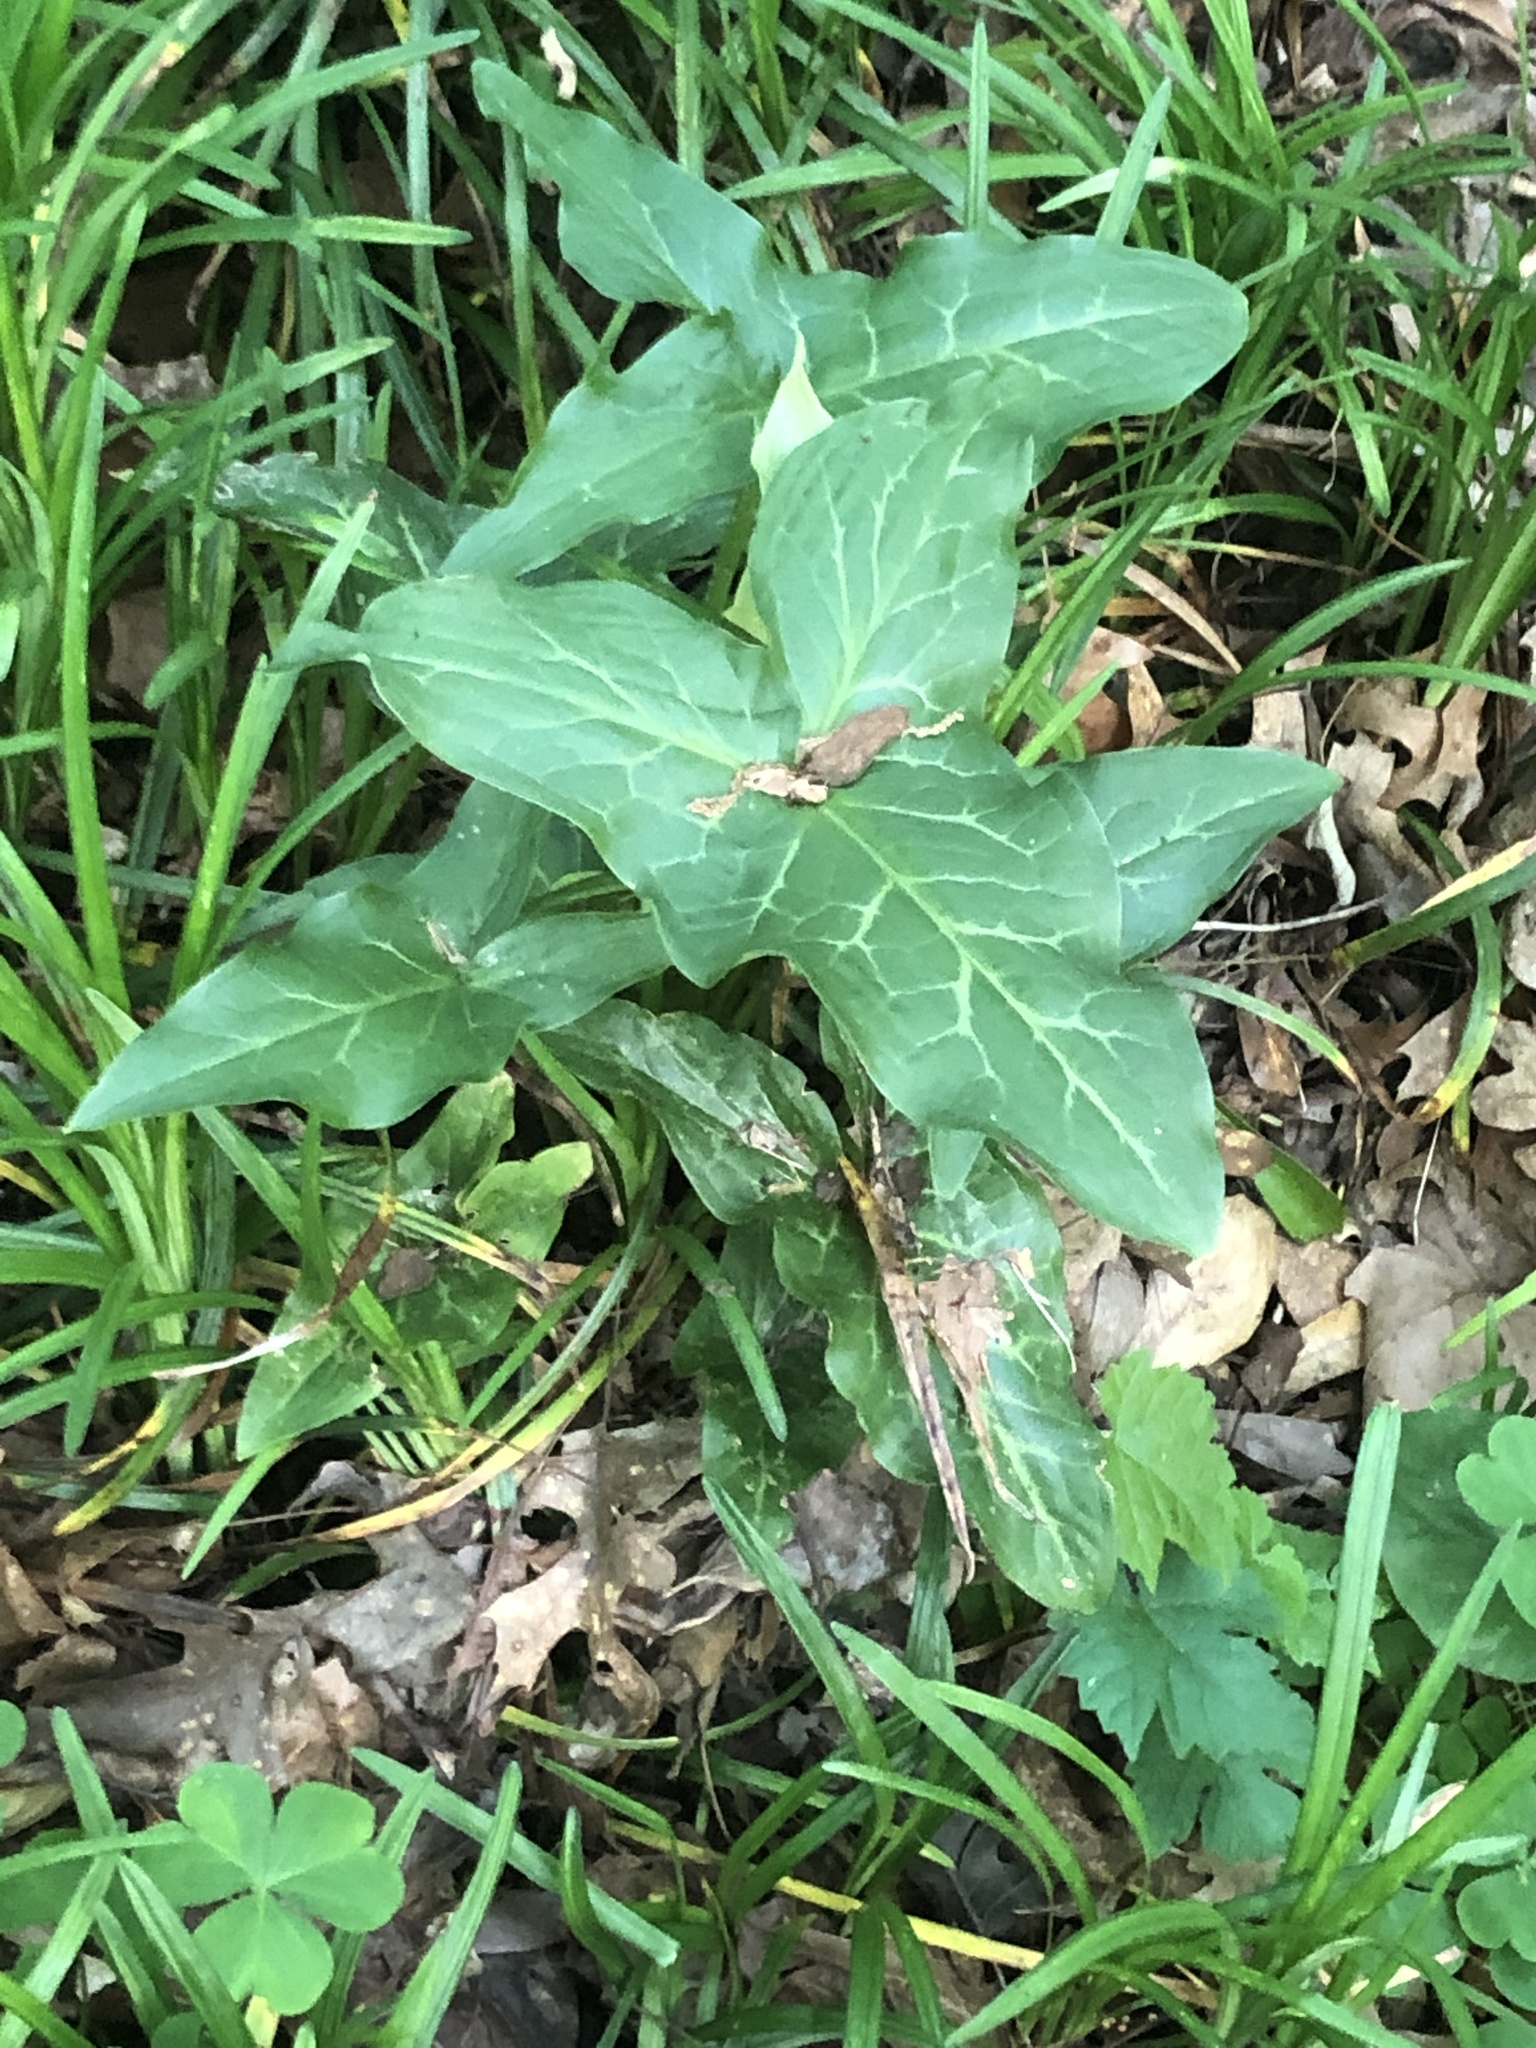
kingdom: Plantae
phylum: Tracheophyta
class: Liliopsida
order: Alismatales
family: Araceae
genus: Arum
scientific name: Arum italicum
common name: Italian lords-and-ladies
